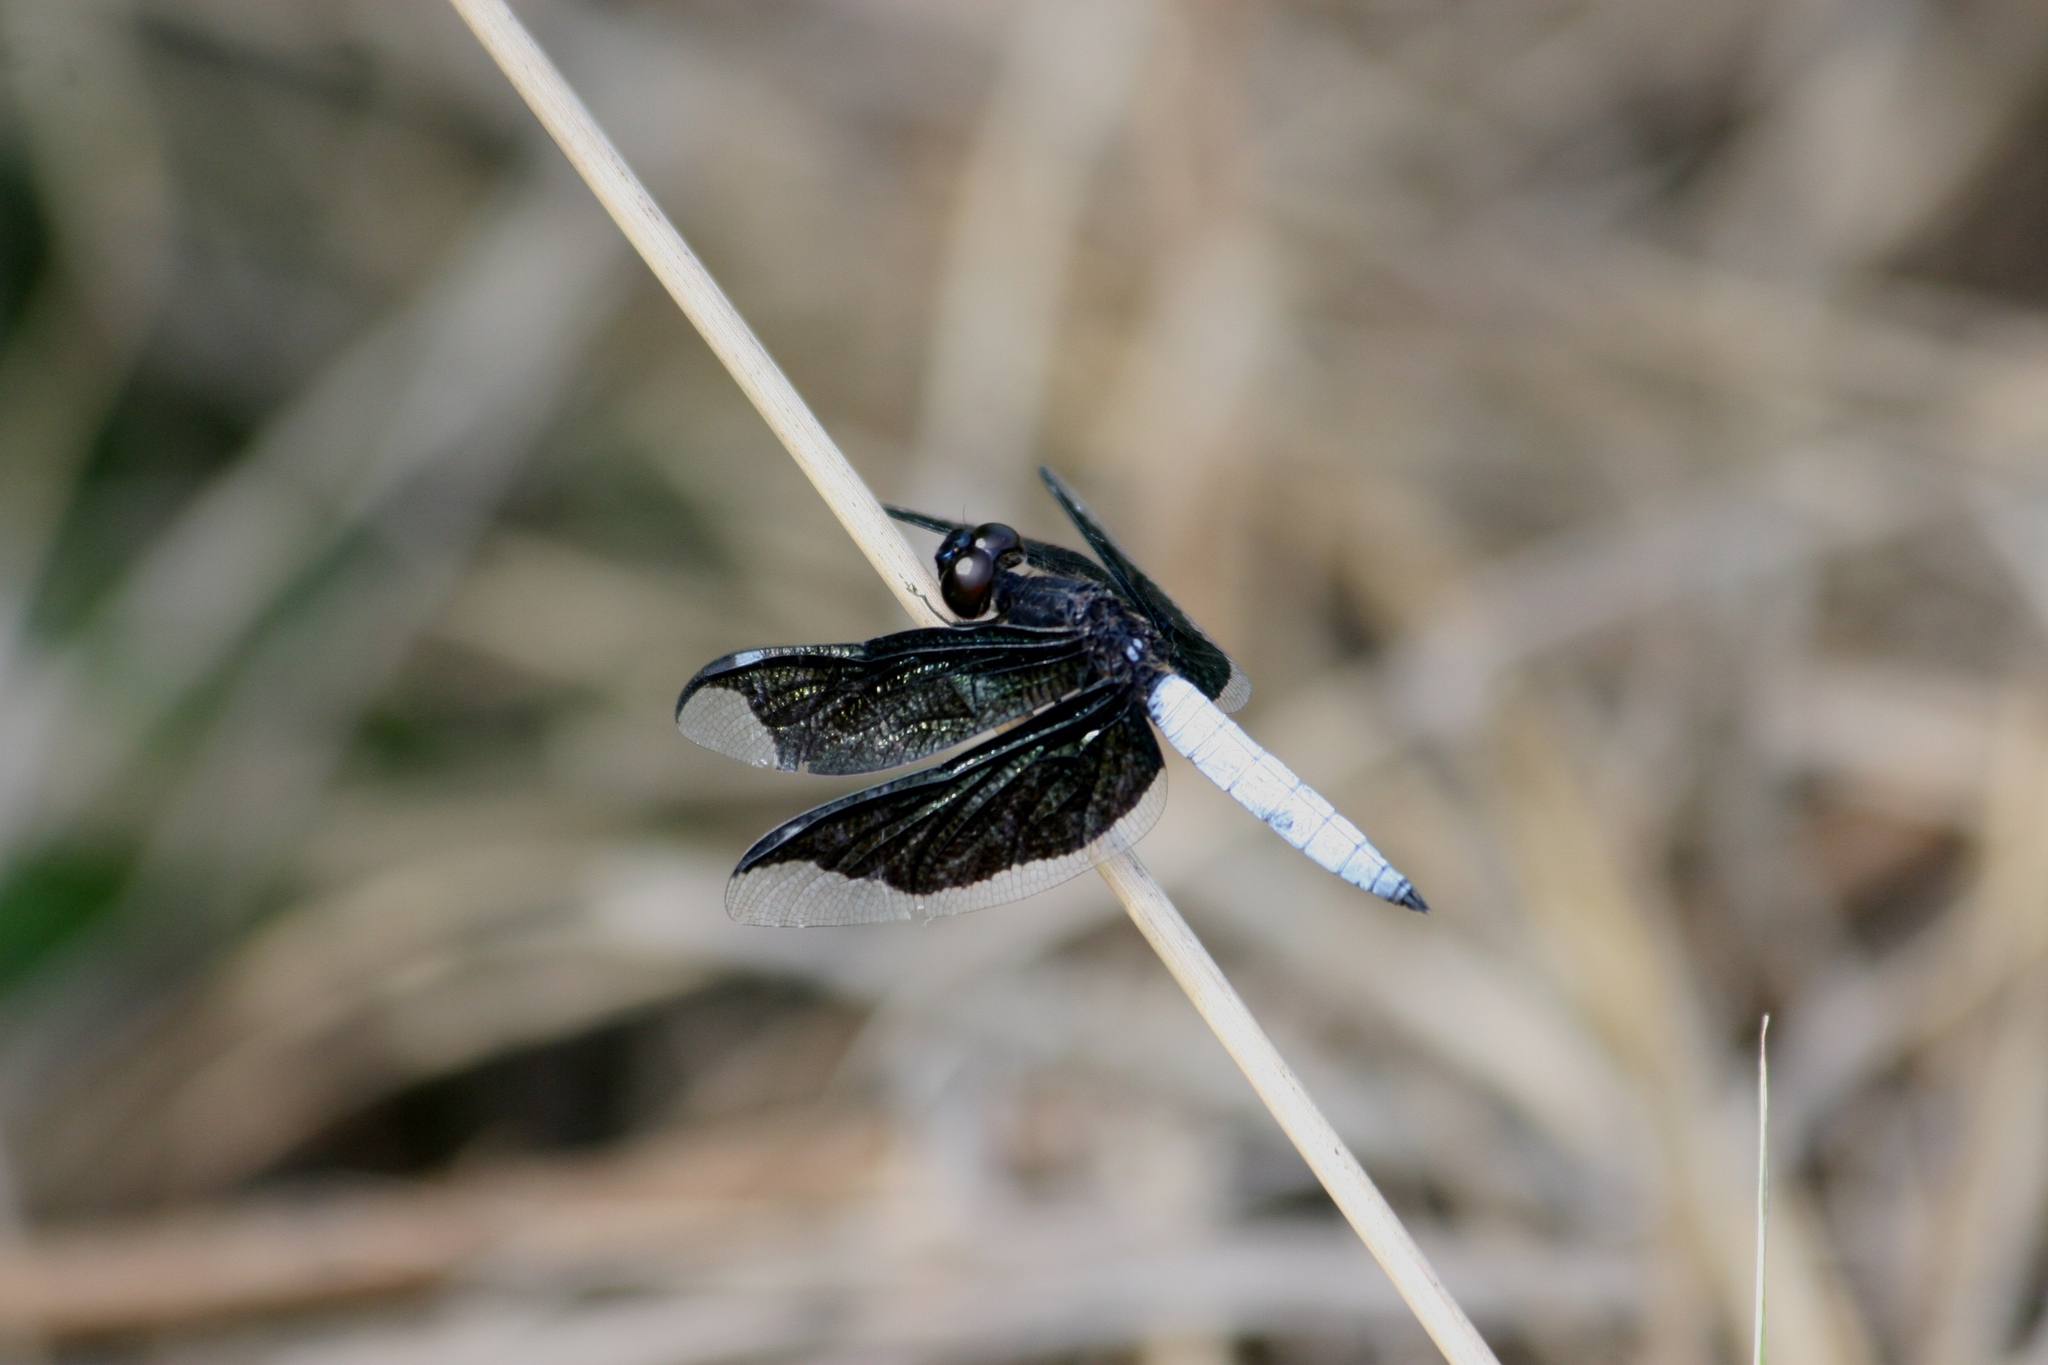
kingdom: Animalia
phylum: Arthropoda
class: Insecta
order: Odonata
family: Libellulidae
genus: Palpopleura
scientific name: Palpopleura lucia
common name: Lucia widow
